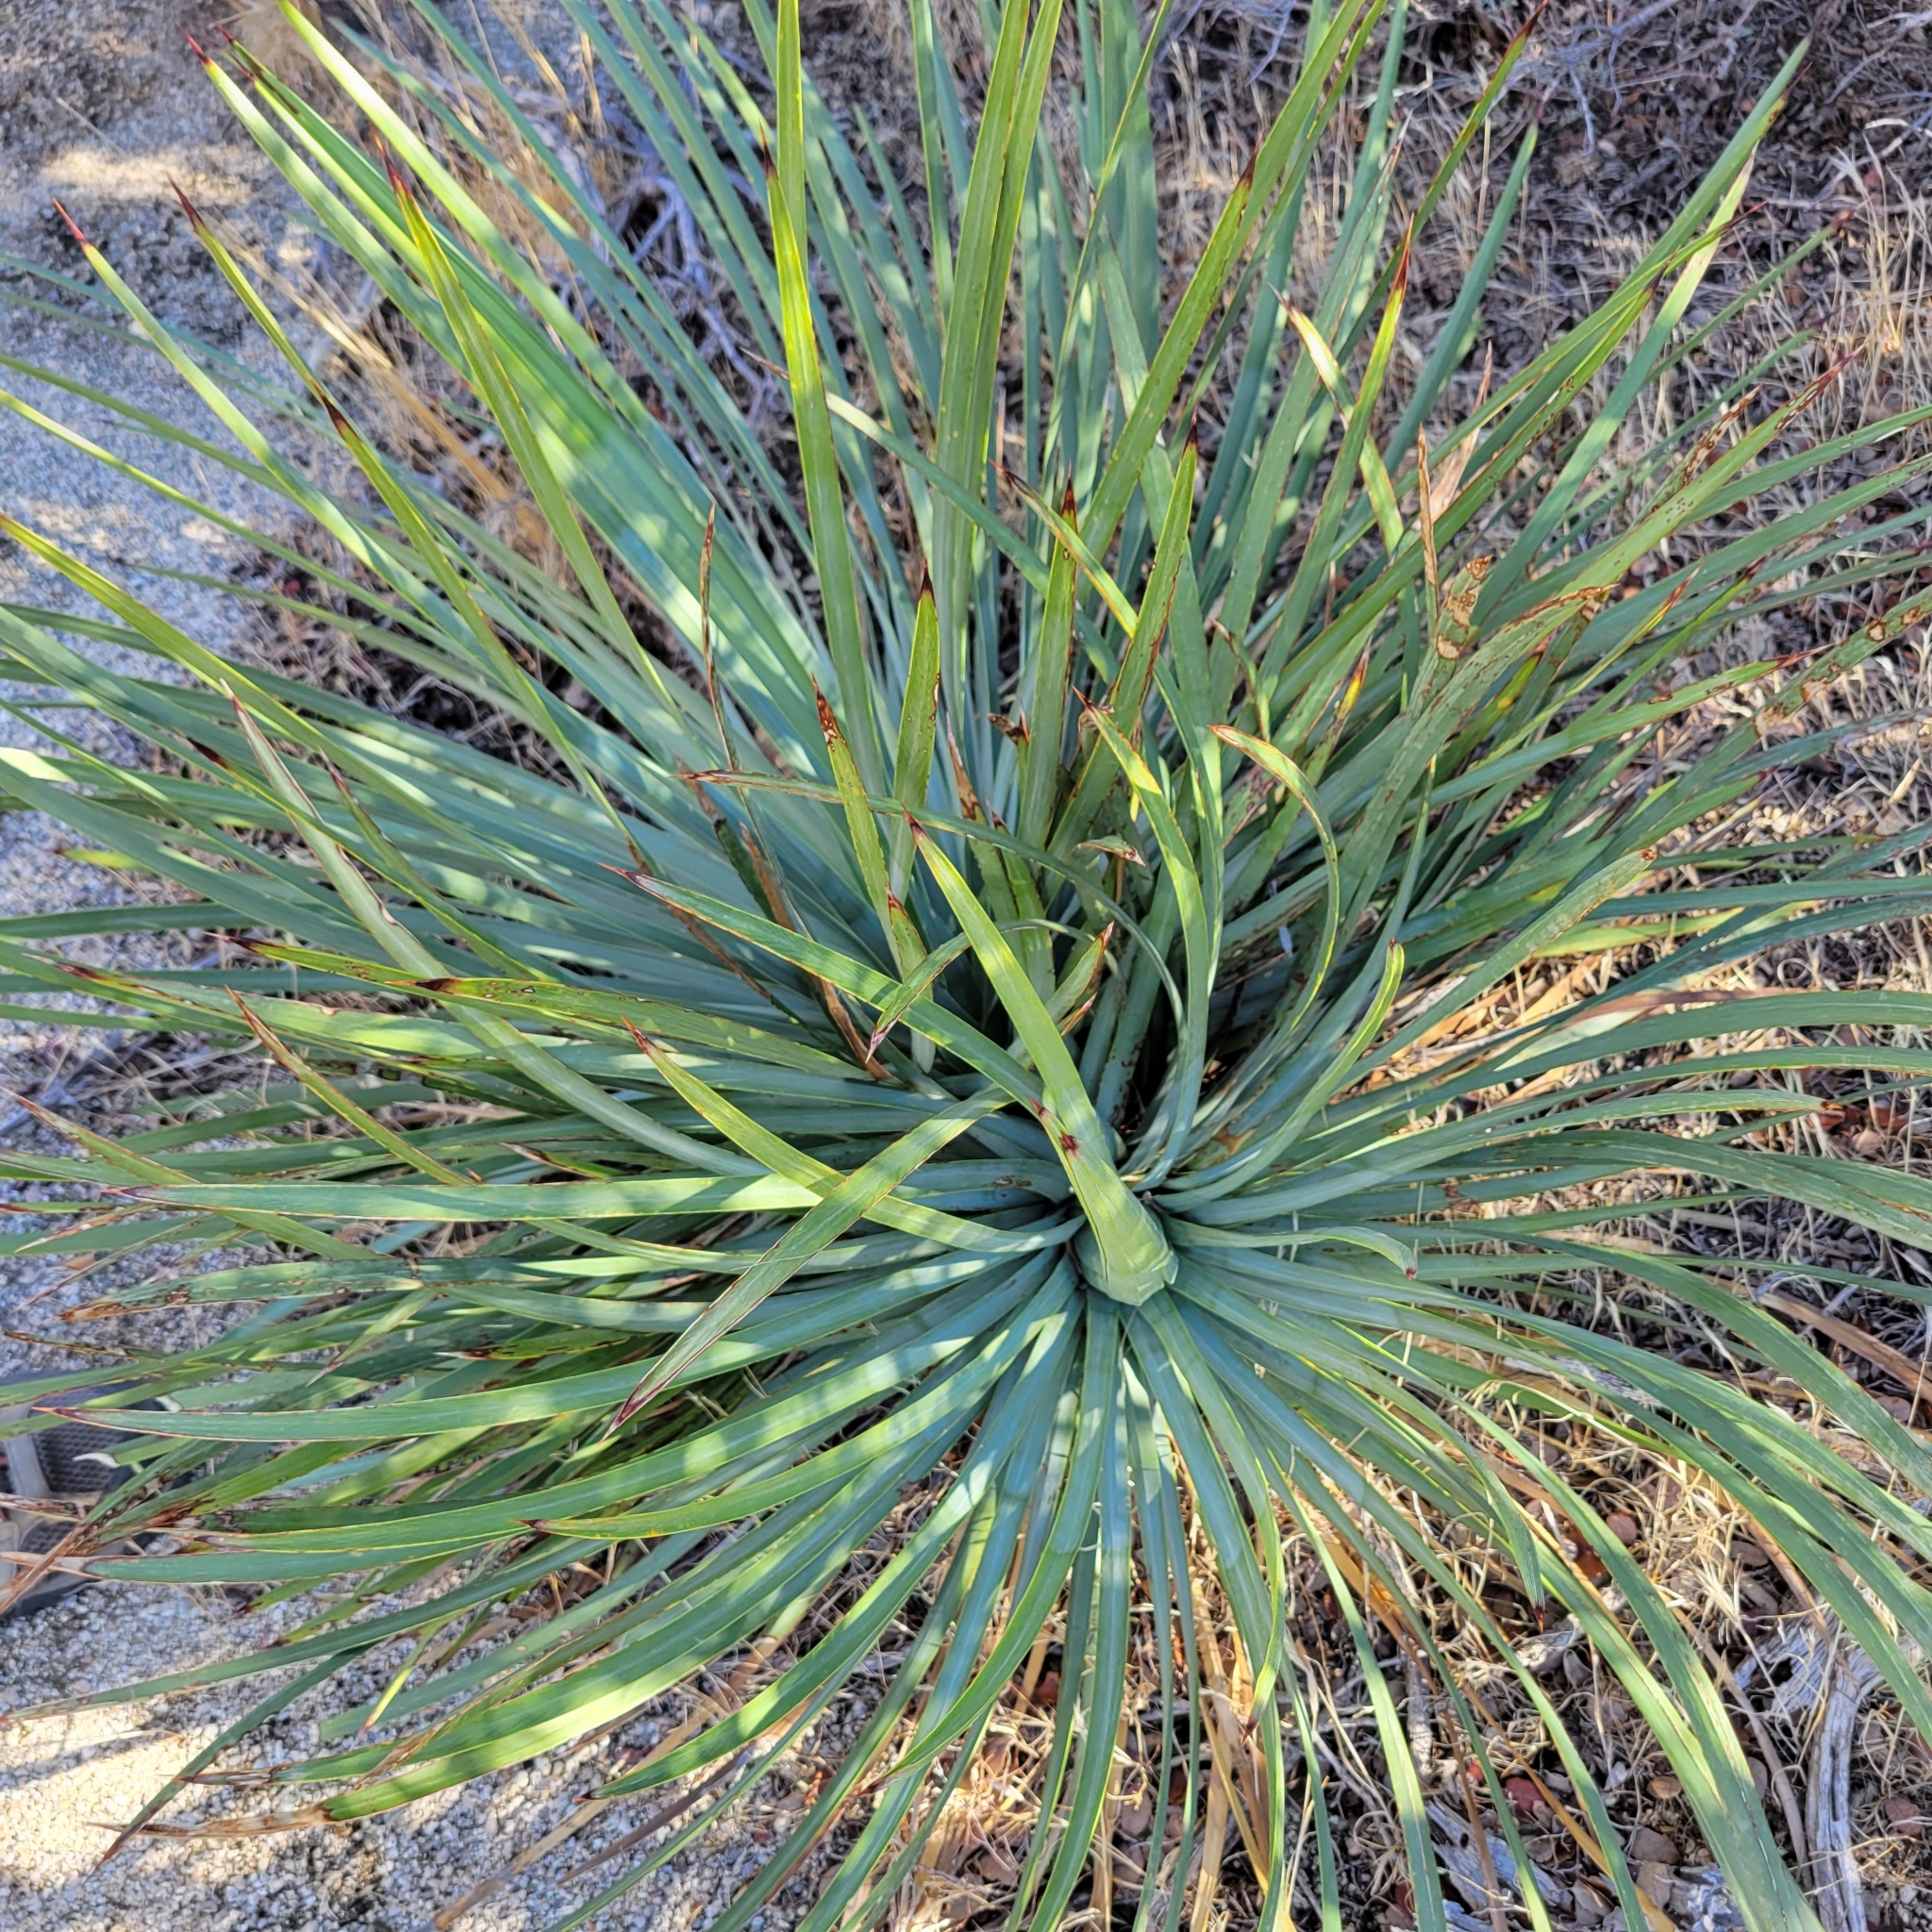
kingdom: Plantae
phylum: Tracheophyta
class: Liliopsida
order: Asparagales
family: Asparagaceae
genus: Hesperoyucca
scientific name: Hesperoyucca whipplei
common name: Our lord's-candle
